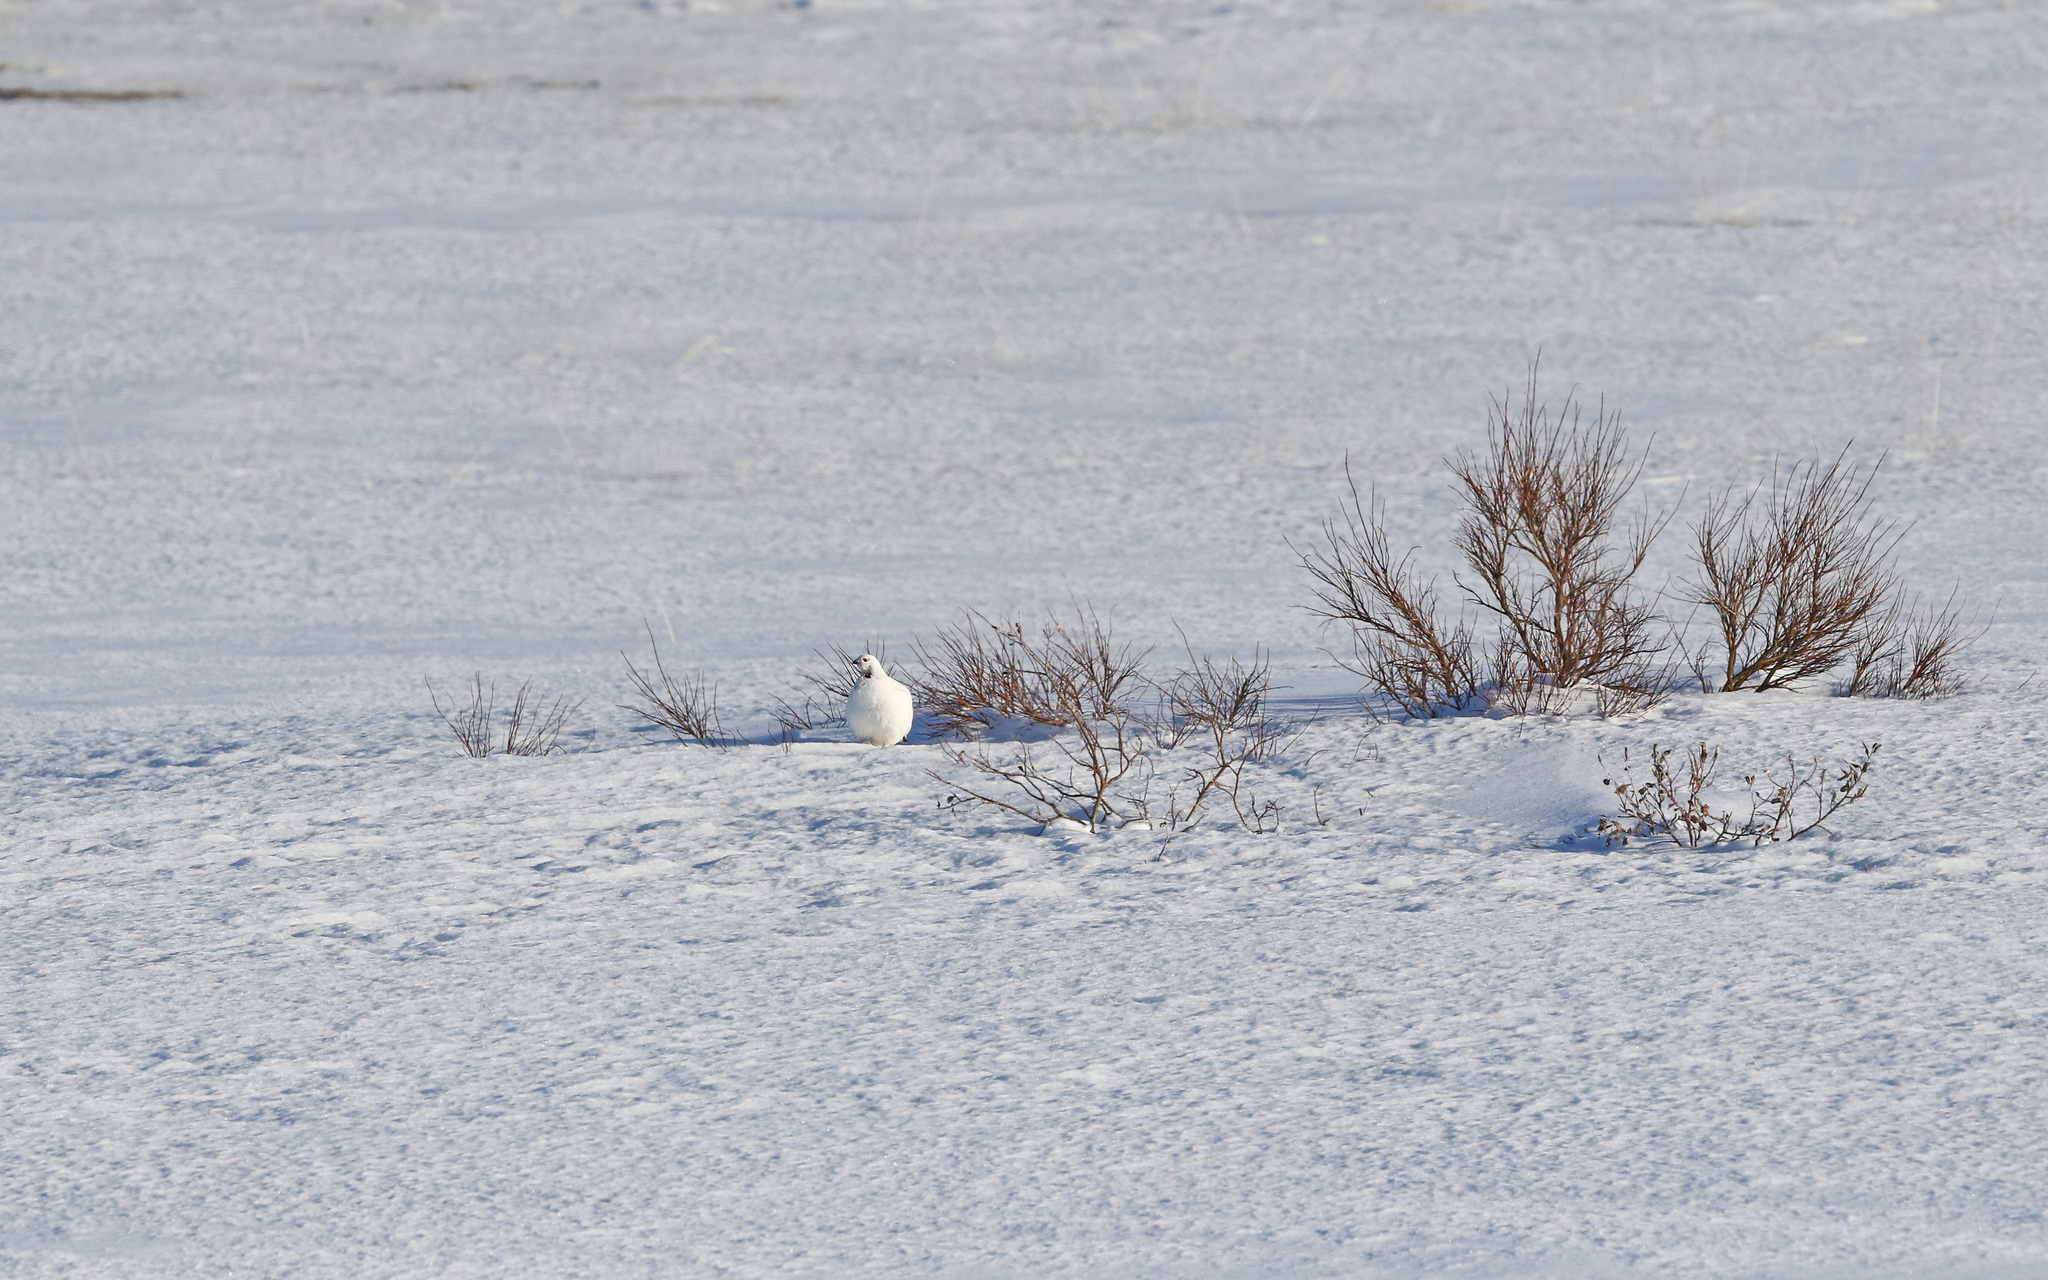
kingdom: Animalia
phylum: Chordata
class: Aves
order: Galliformes
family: Phasianidae
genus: Lagopus
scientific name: Lagopus lagopus
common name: Willow ptarmigan
